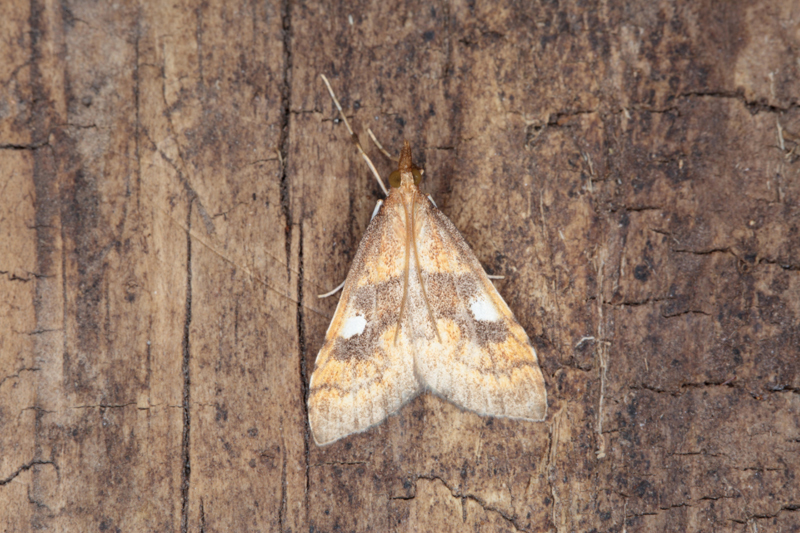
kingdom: Animalia
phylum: Arthropoda
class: Insecta
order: Lepidoptera
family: Crambidae
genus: Udea
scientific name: Udea pantheropa
